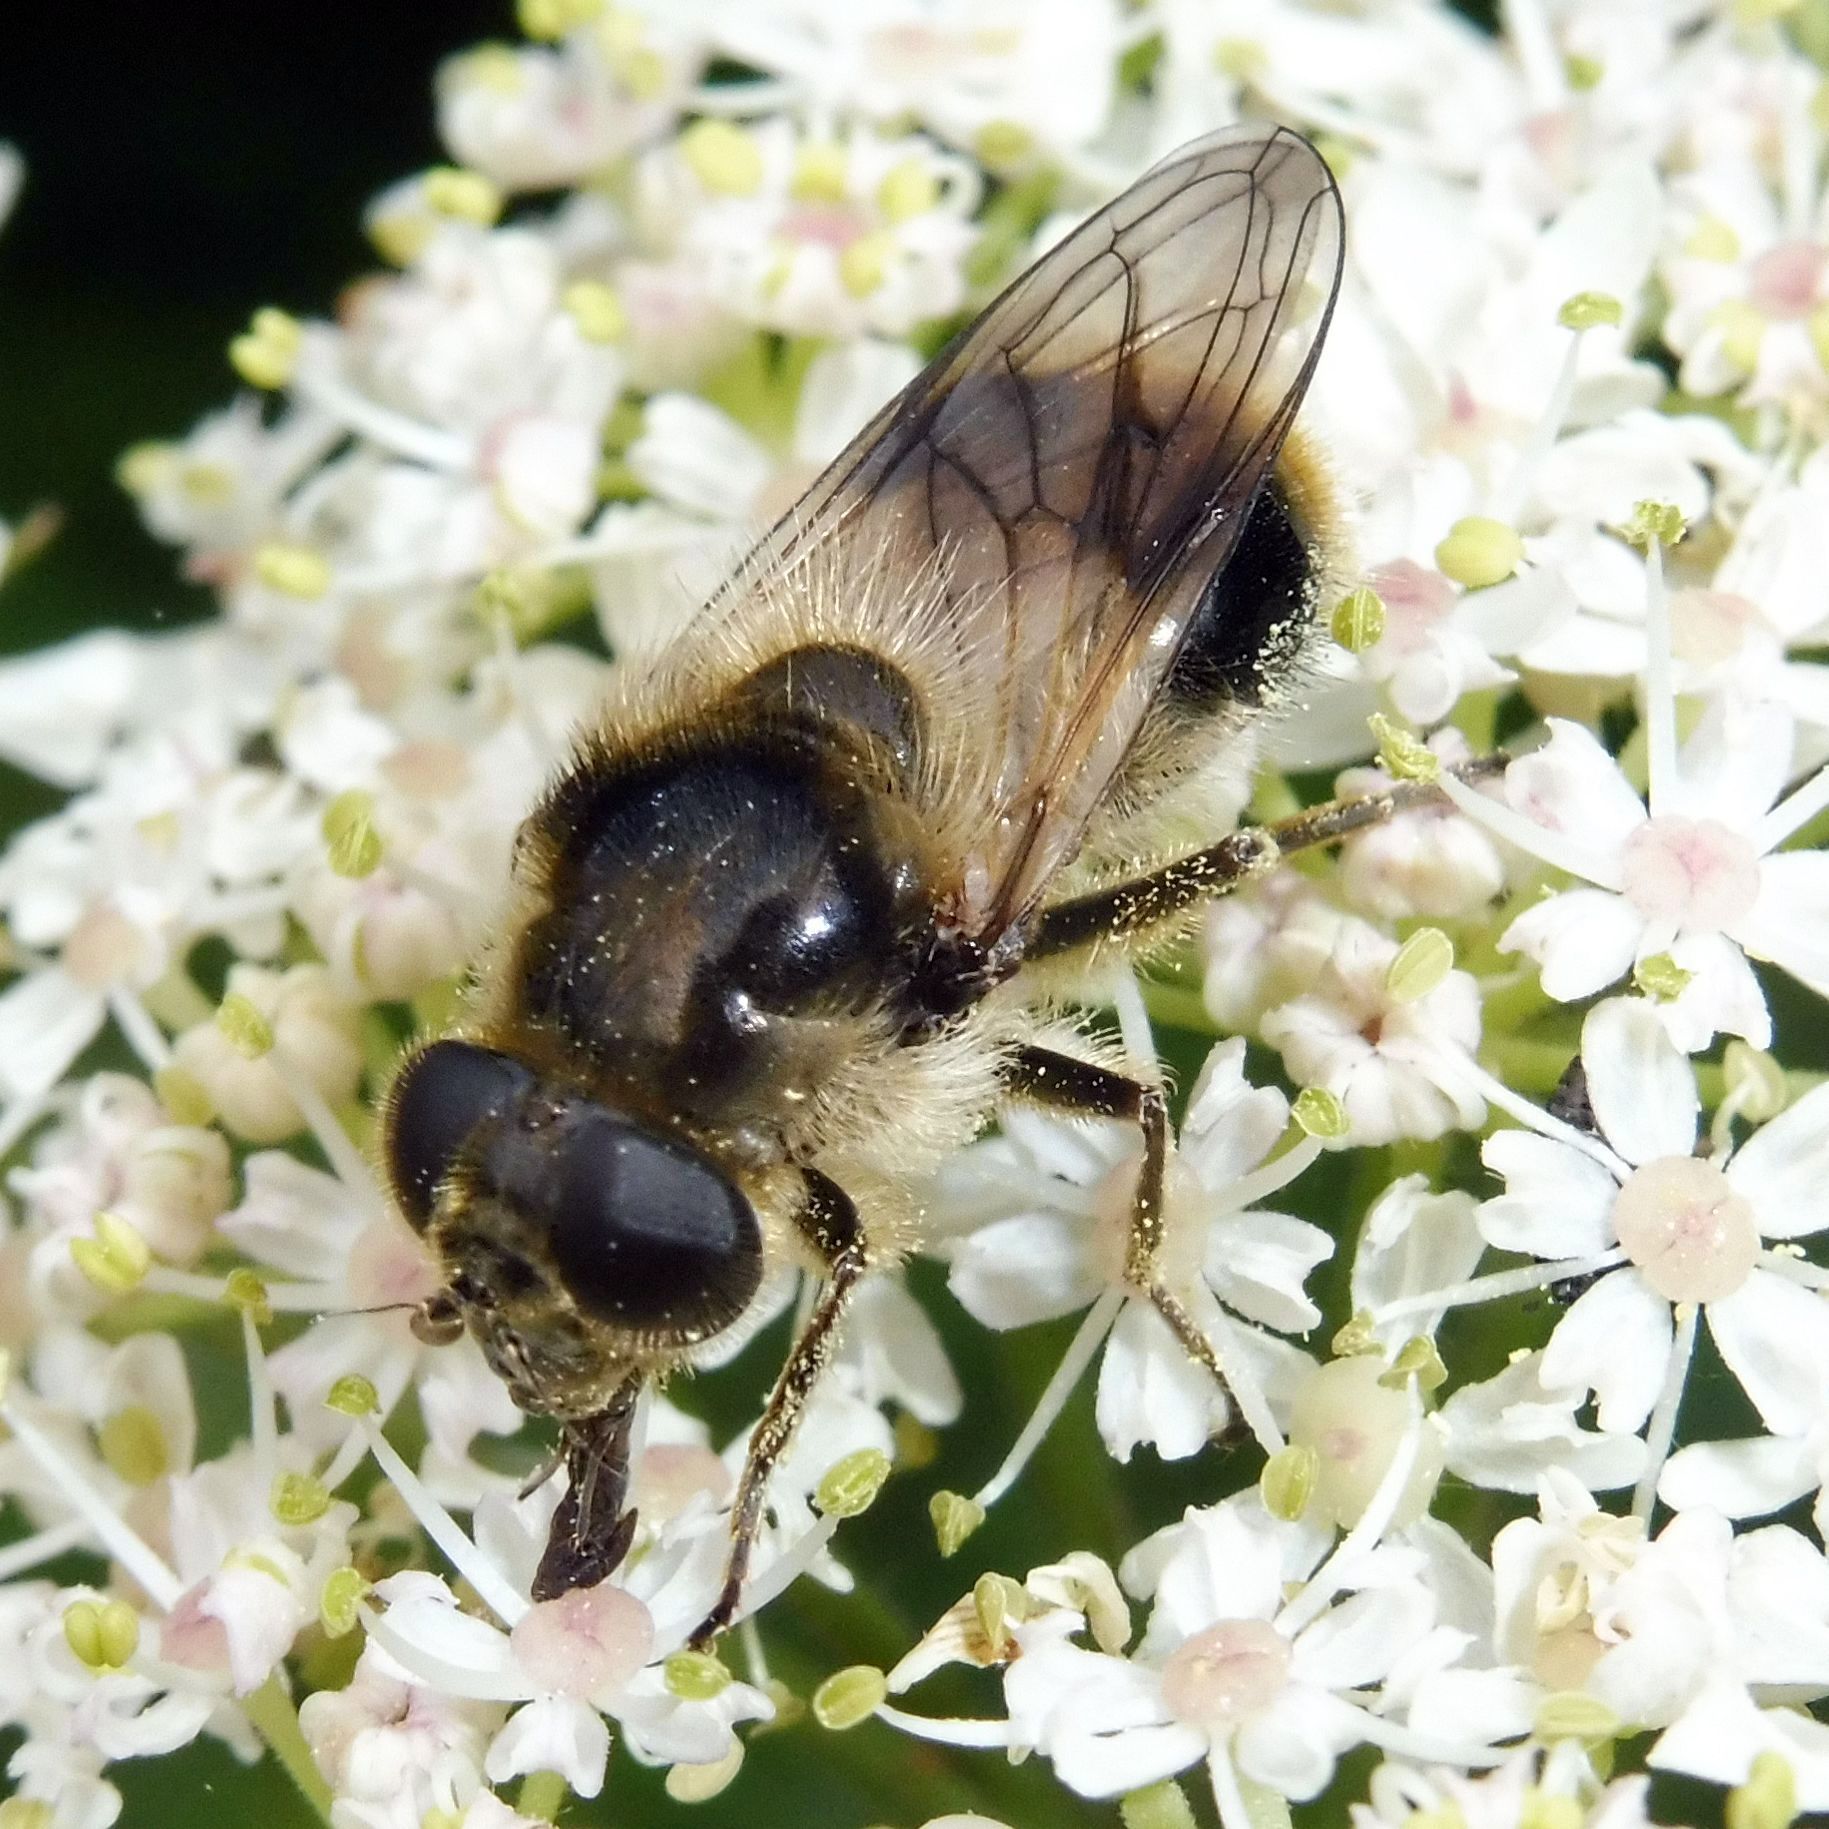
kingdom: Animalia
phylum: Arthropoda
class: Insecta
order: Diptera
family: Syrphidae
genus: Cheilosia
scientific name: Cheilosia illustrata
